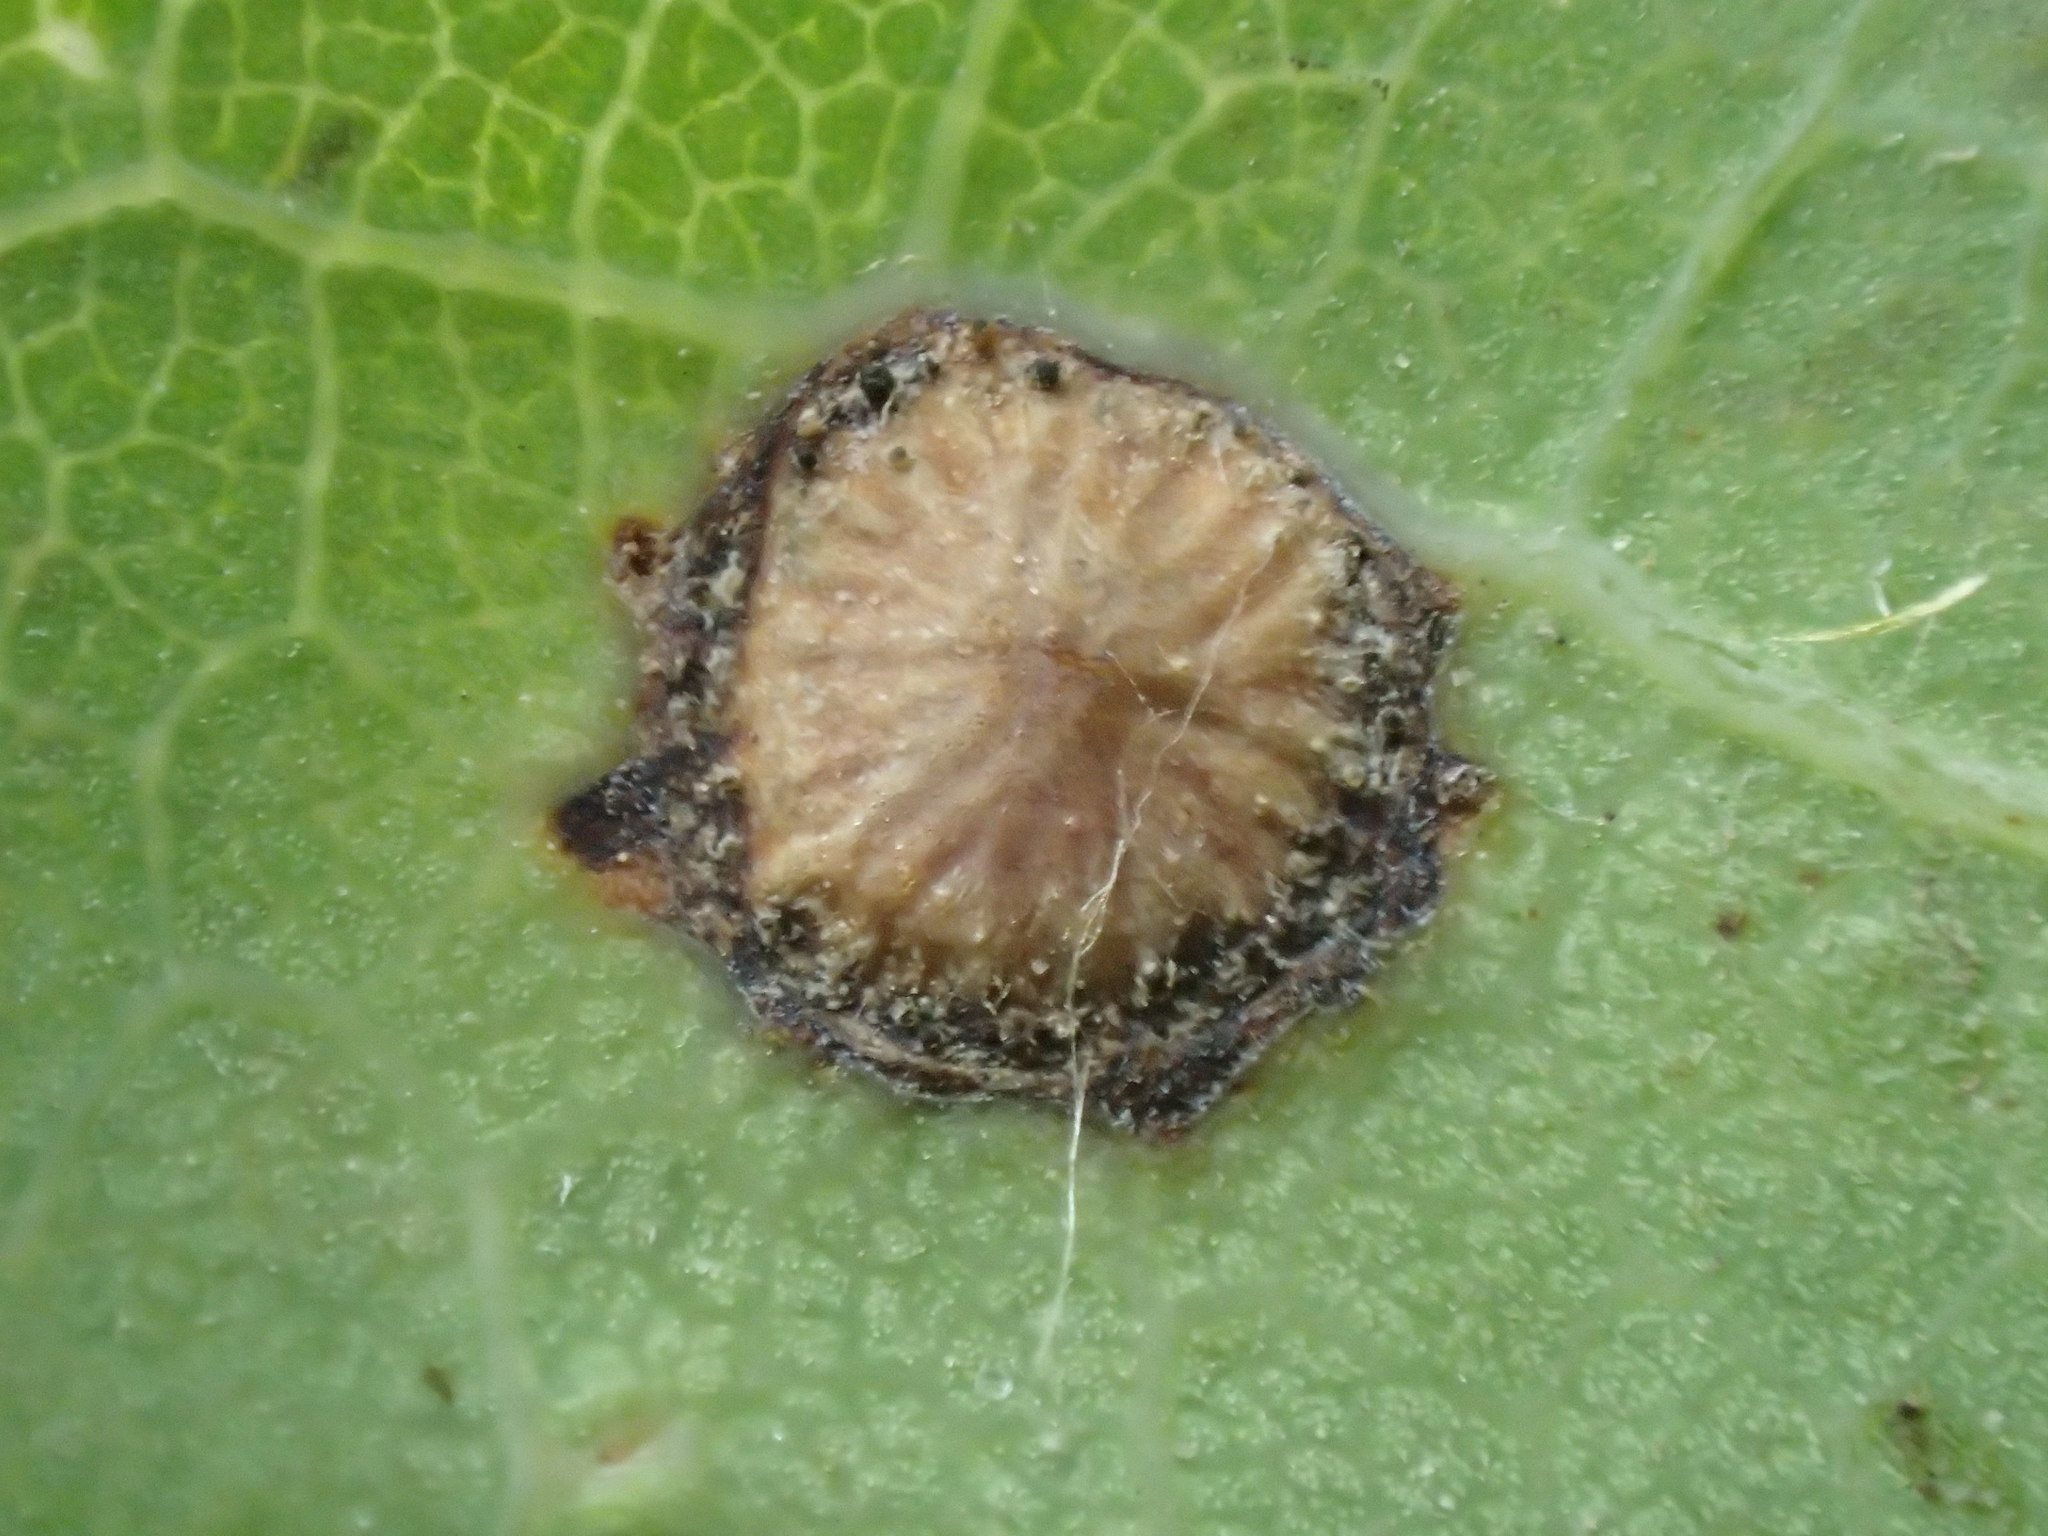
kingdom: Animalia
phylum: Arthropoda
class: Insecta
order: Hymenoptera
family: Cynipidae
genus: Neuroterus
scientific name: Neuroterus numismalis
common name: Silk-button spangle gall
